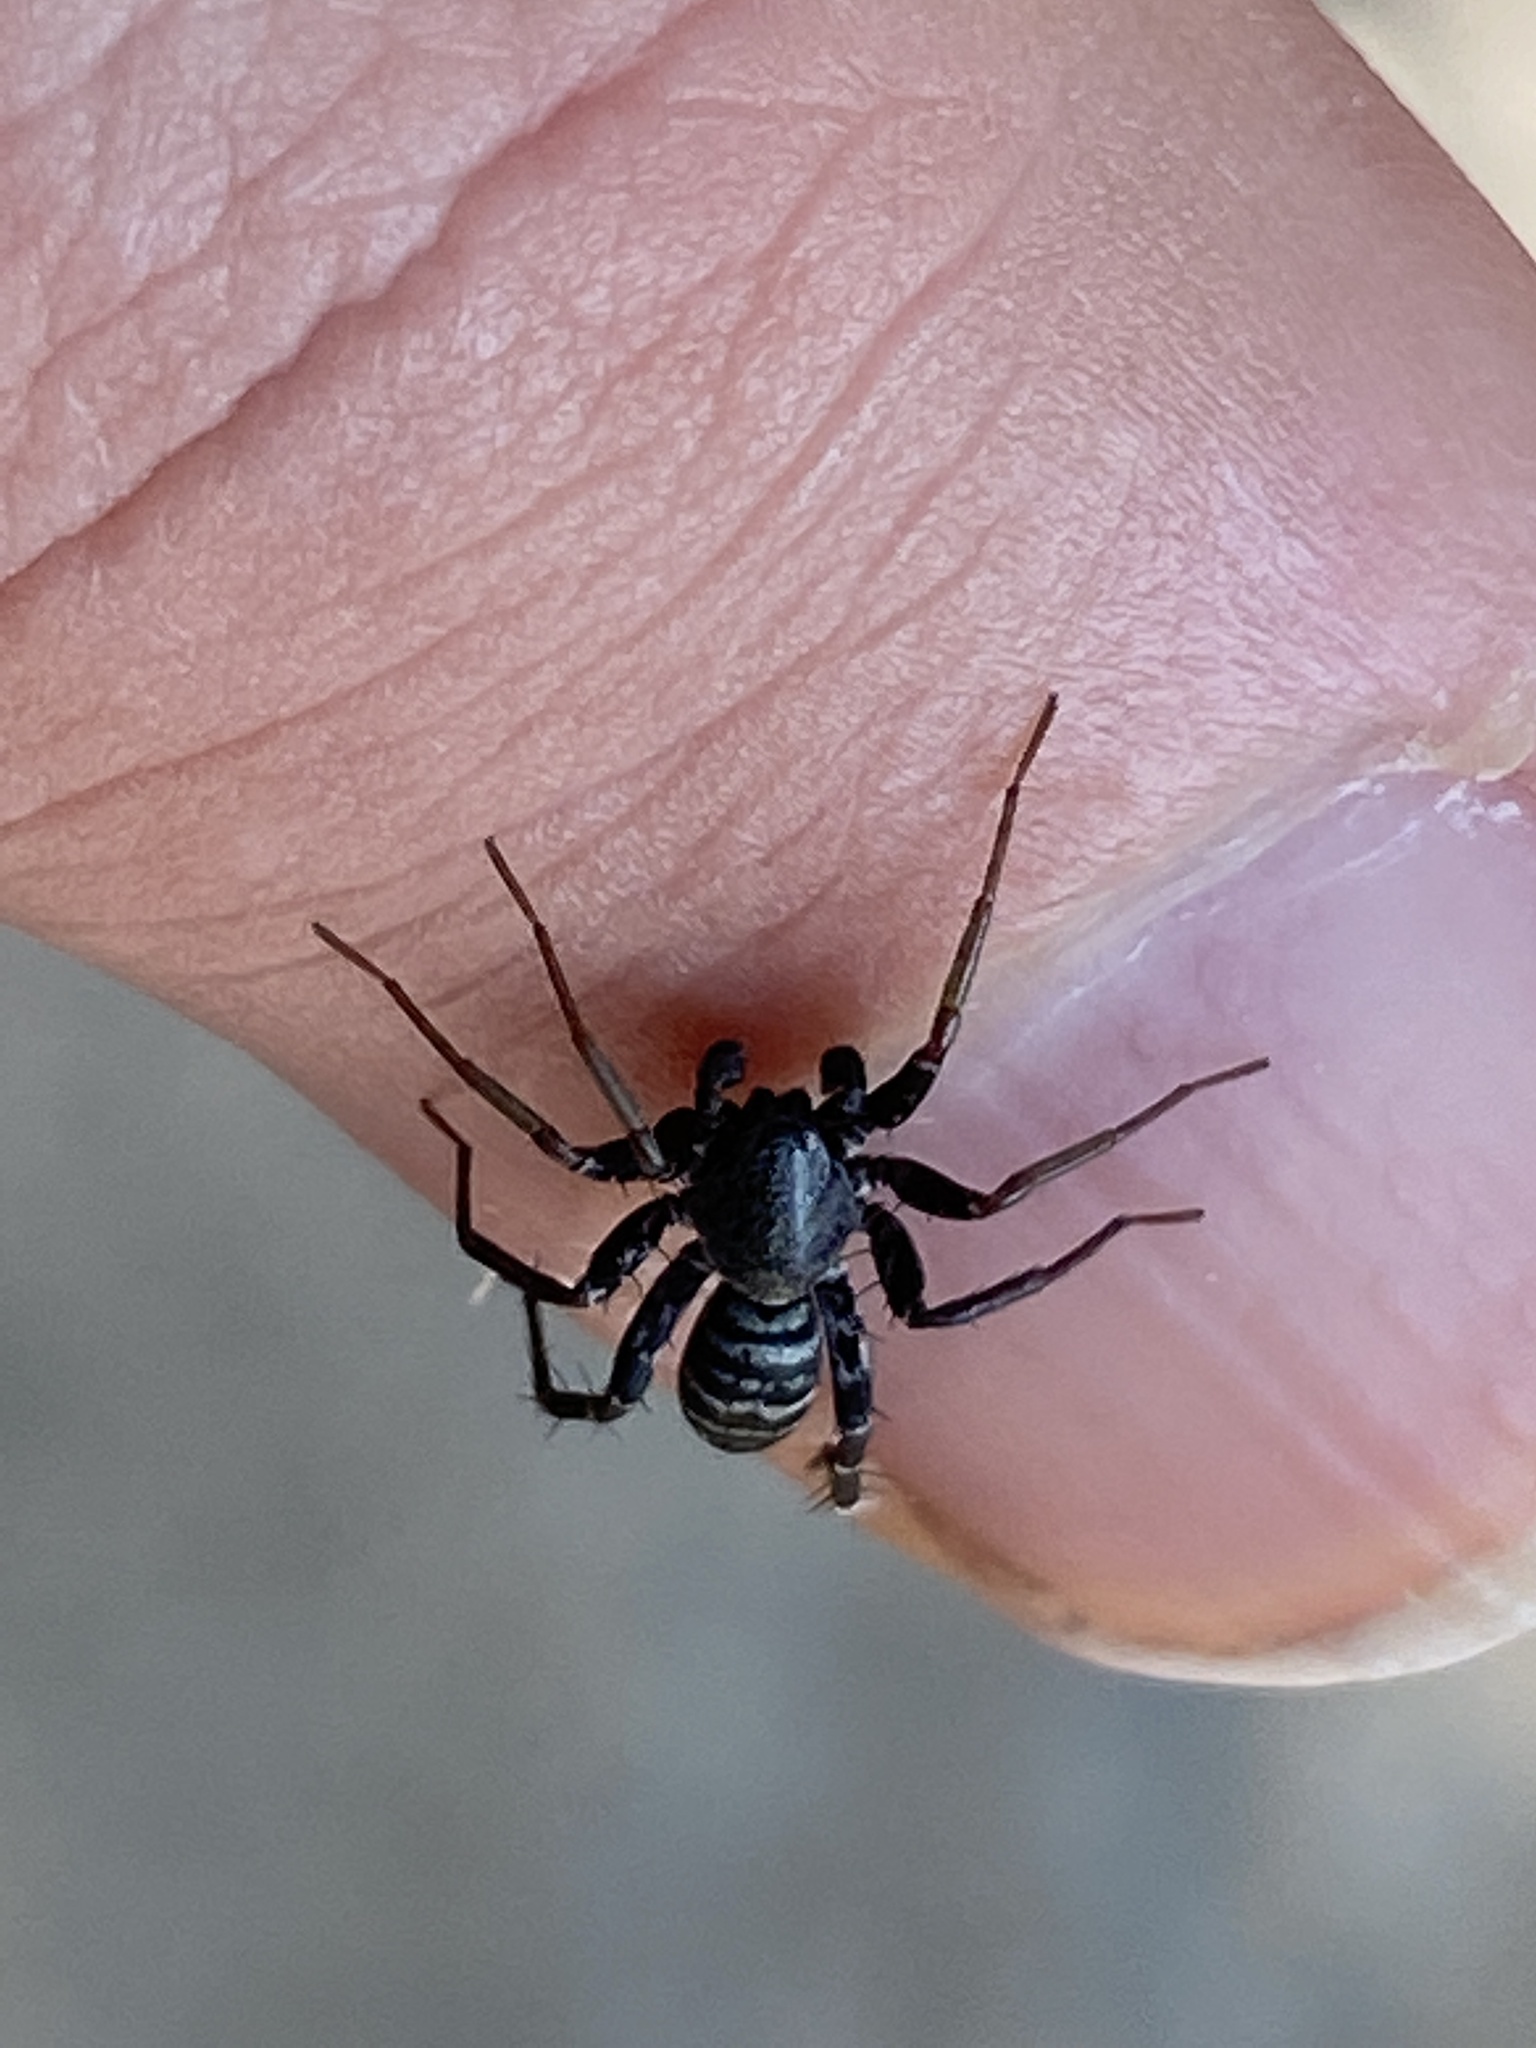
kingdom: Animalia
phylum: Arthropoda
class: Arachnida
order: Araneae
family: Corinnidae
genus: Castianeira
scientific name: Castianeira longipalpa
